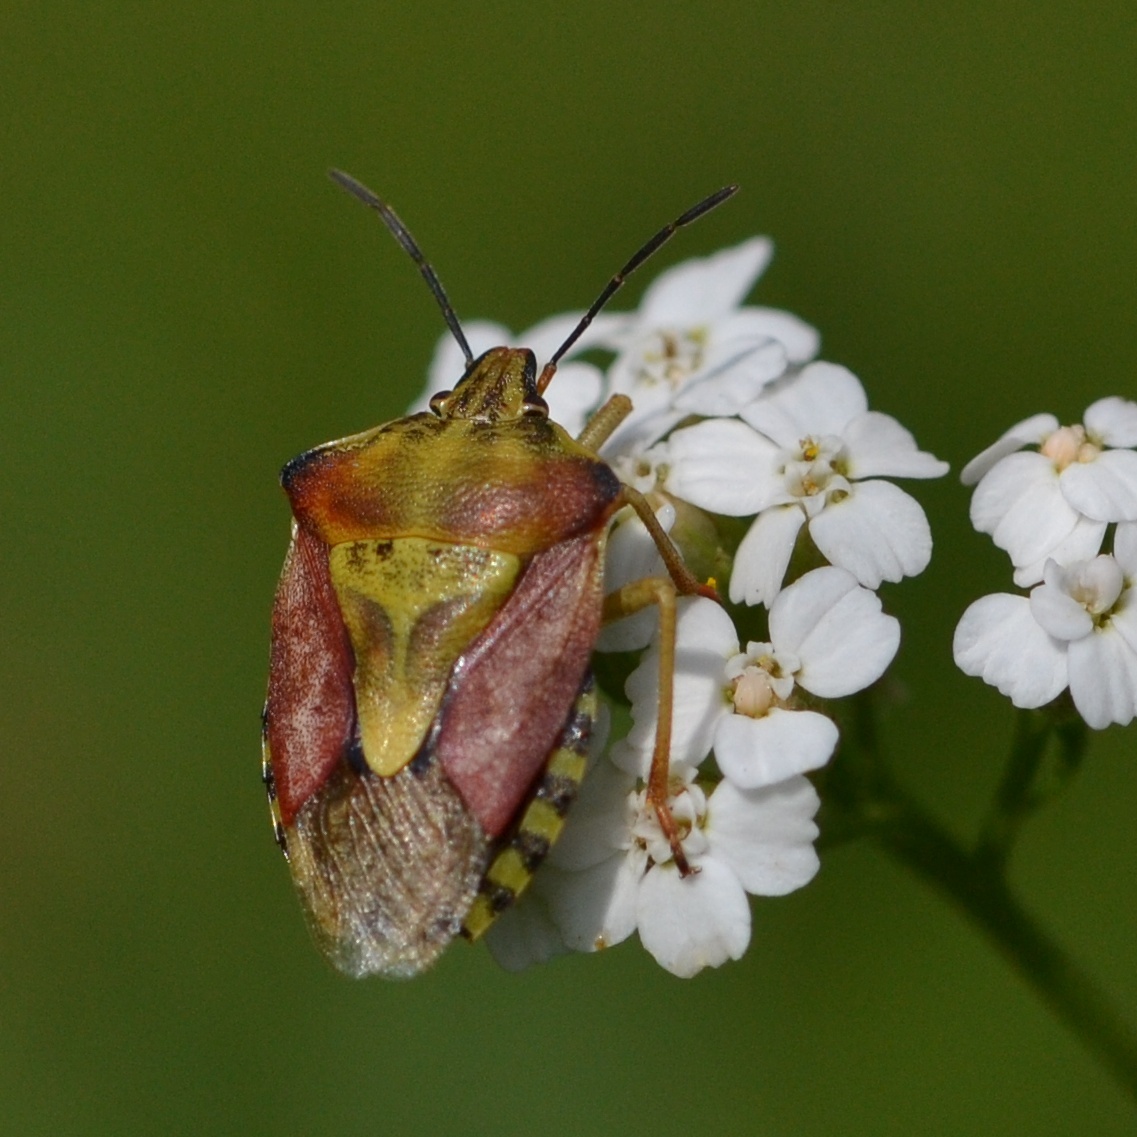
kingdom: Animalia
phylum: Arthropoda
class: Insecta
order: Hemiptera
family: Pentatomidae
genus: Carpocoris
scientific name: Carpocoris purpureipennis
